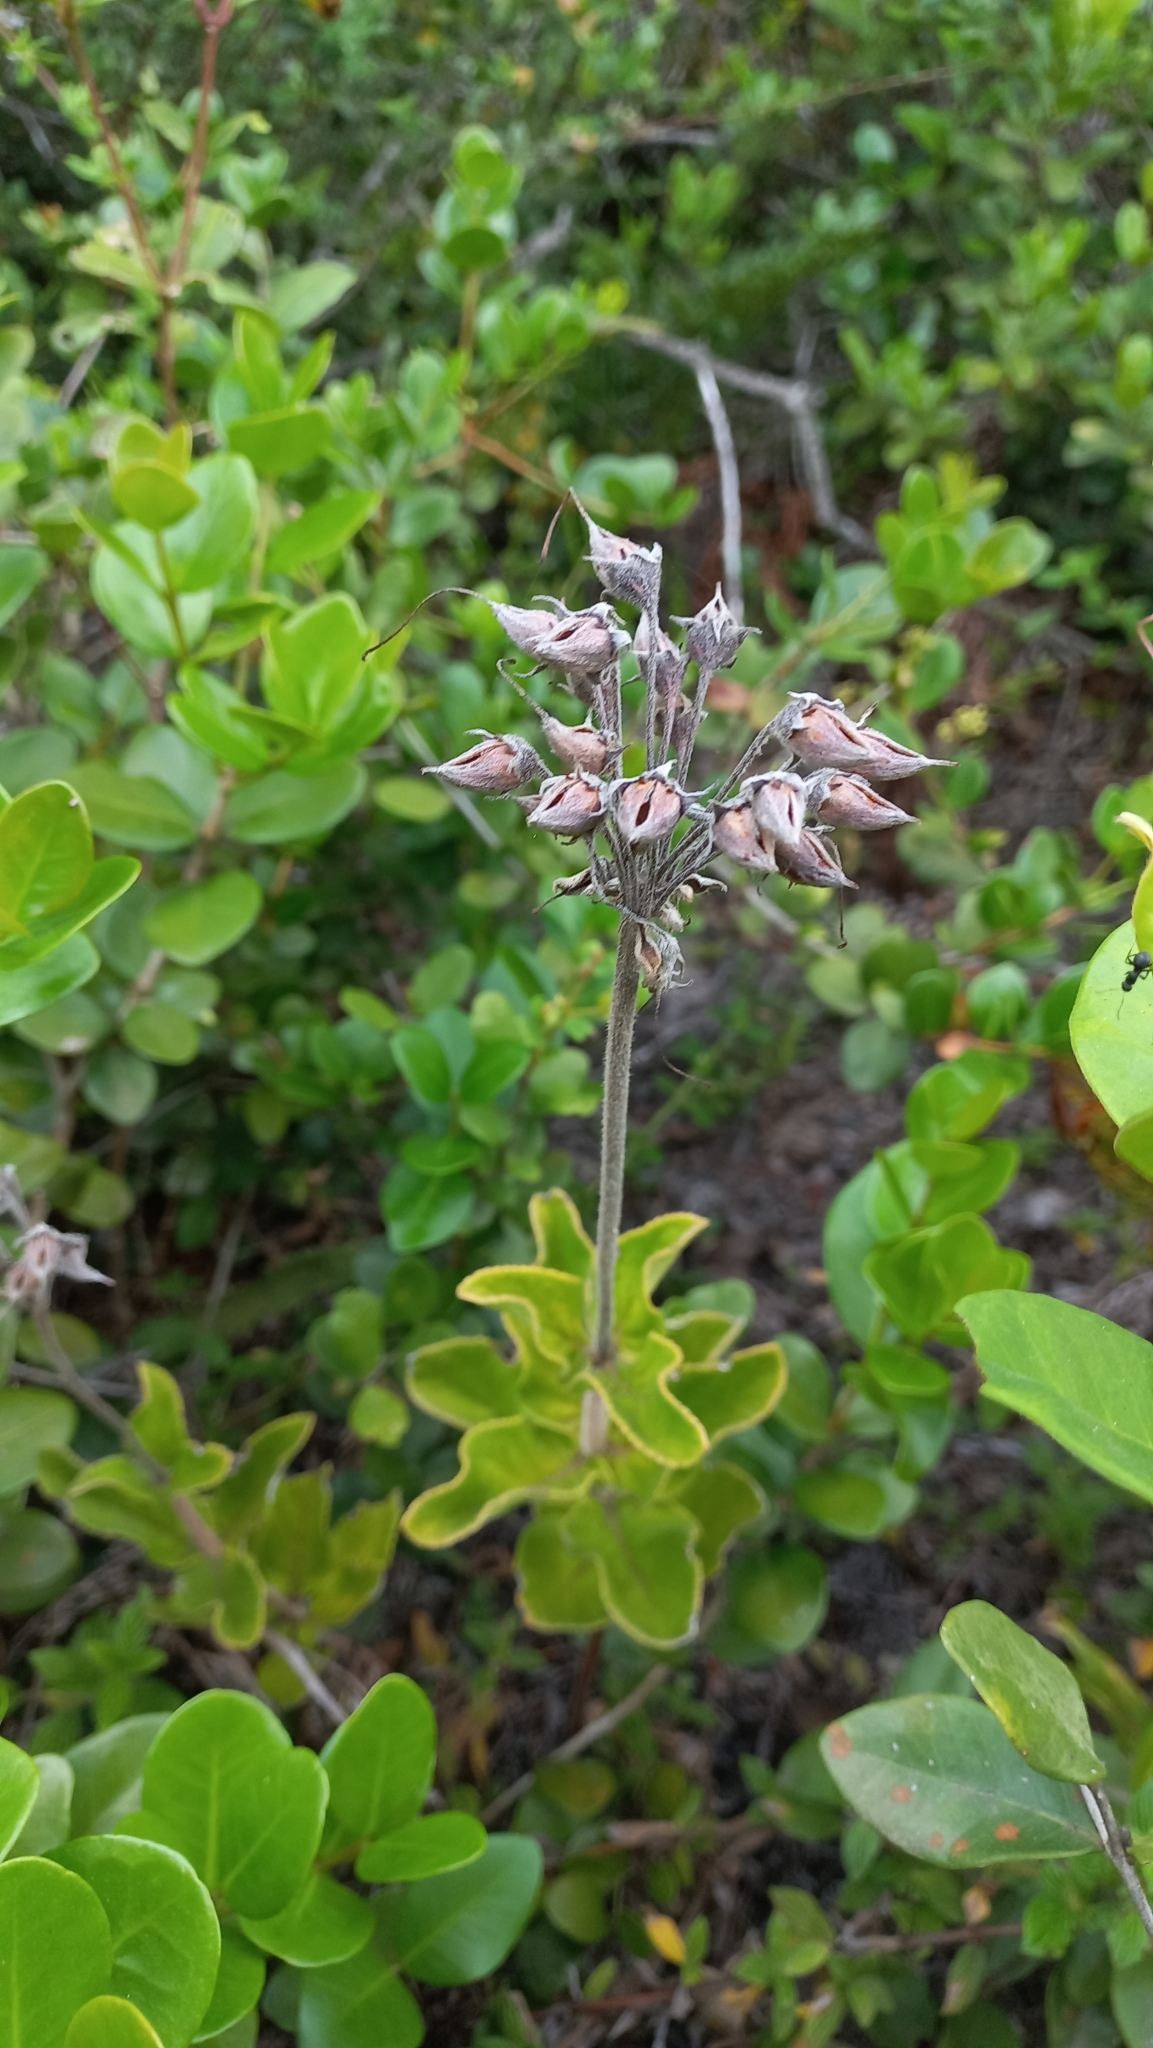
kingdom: Plantae
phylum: Tracheophyta
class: Magnoliopsida
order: Lamiales
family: Gesneriaceae
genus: Sinningia
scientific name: Sinningia polyantha
